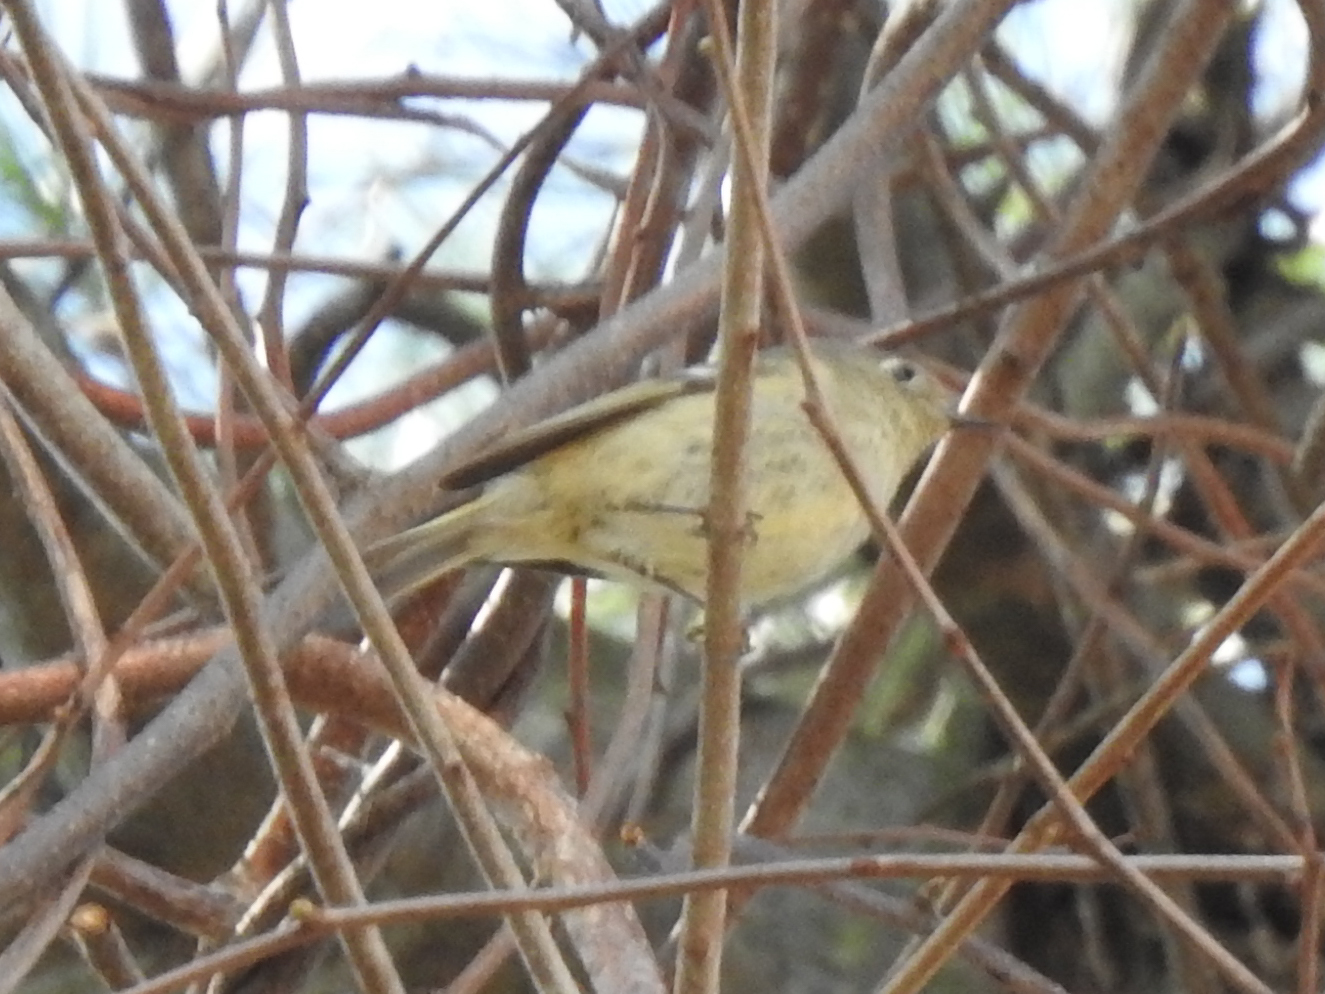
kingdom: Animalia
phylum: Chordata
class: Aves
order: Passeriformes
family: Regulidae
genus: Regulus
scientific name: Regulus calendula
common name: Ruby-crowned kinglet
